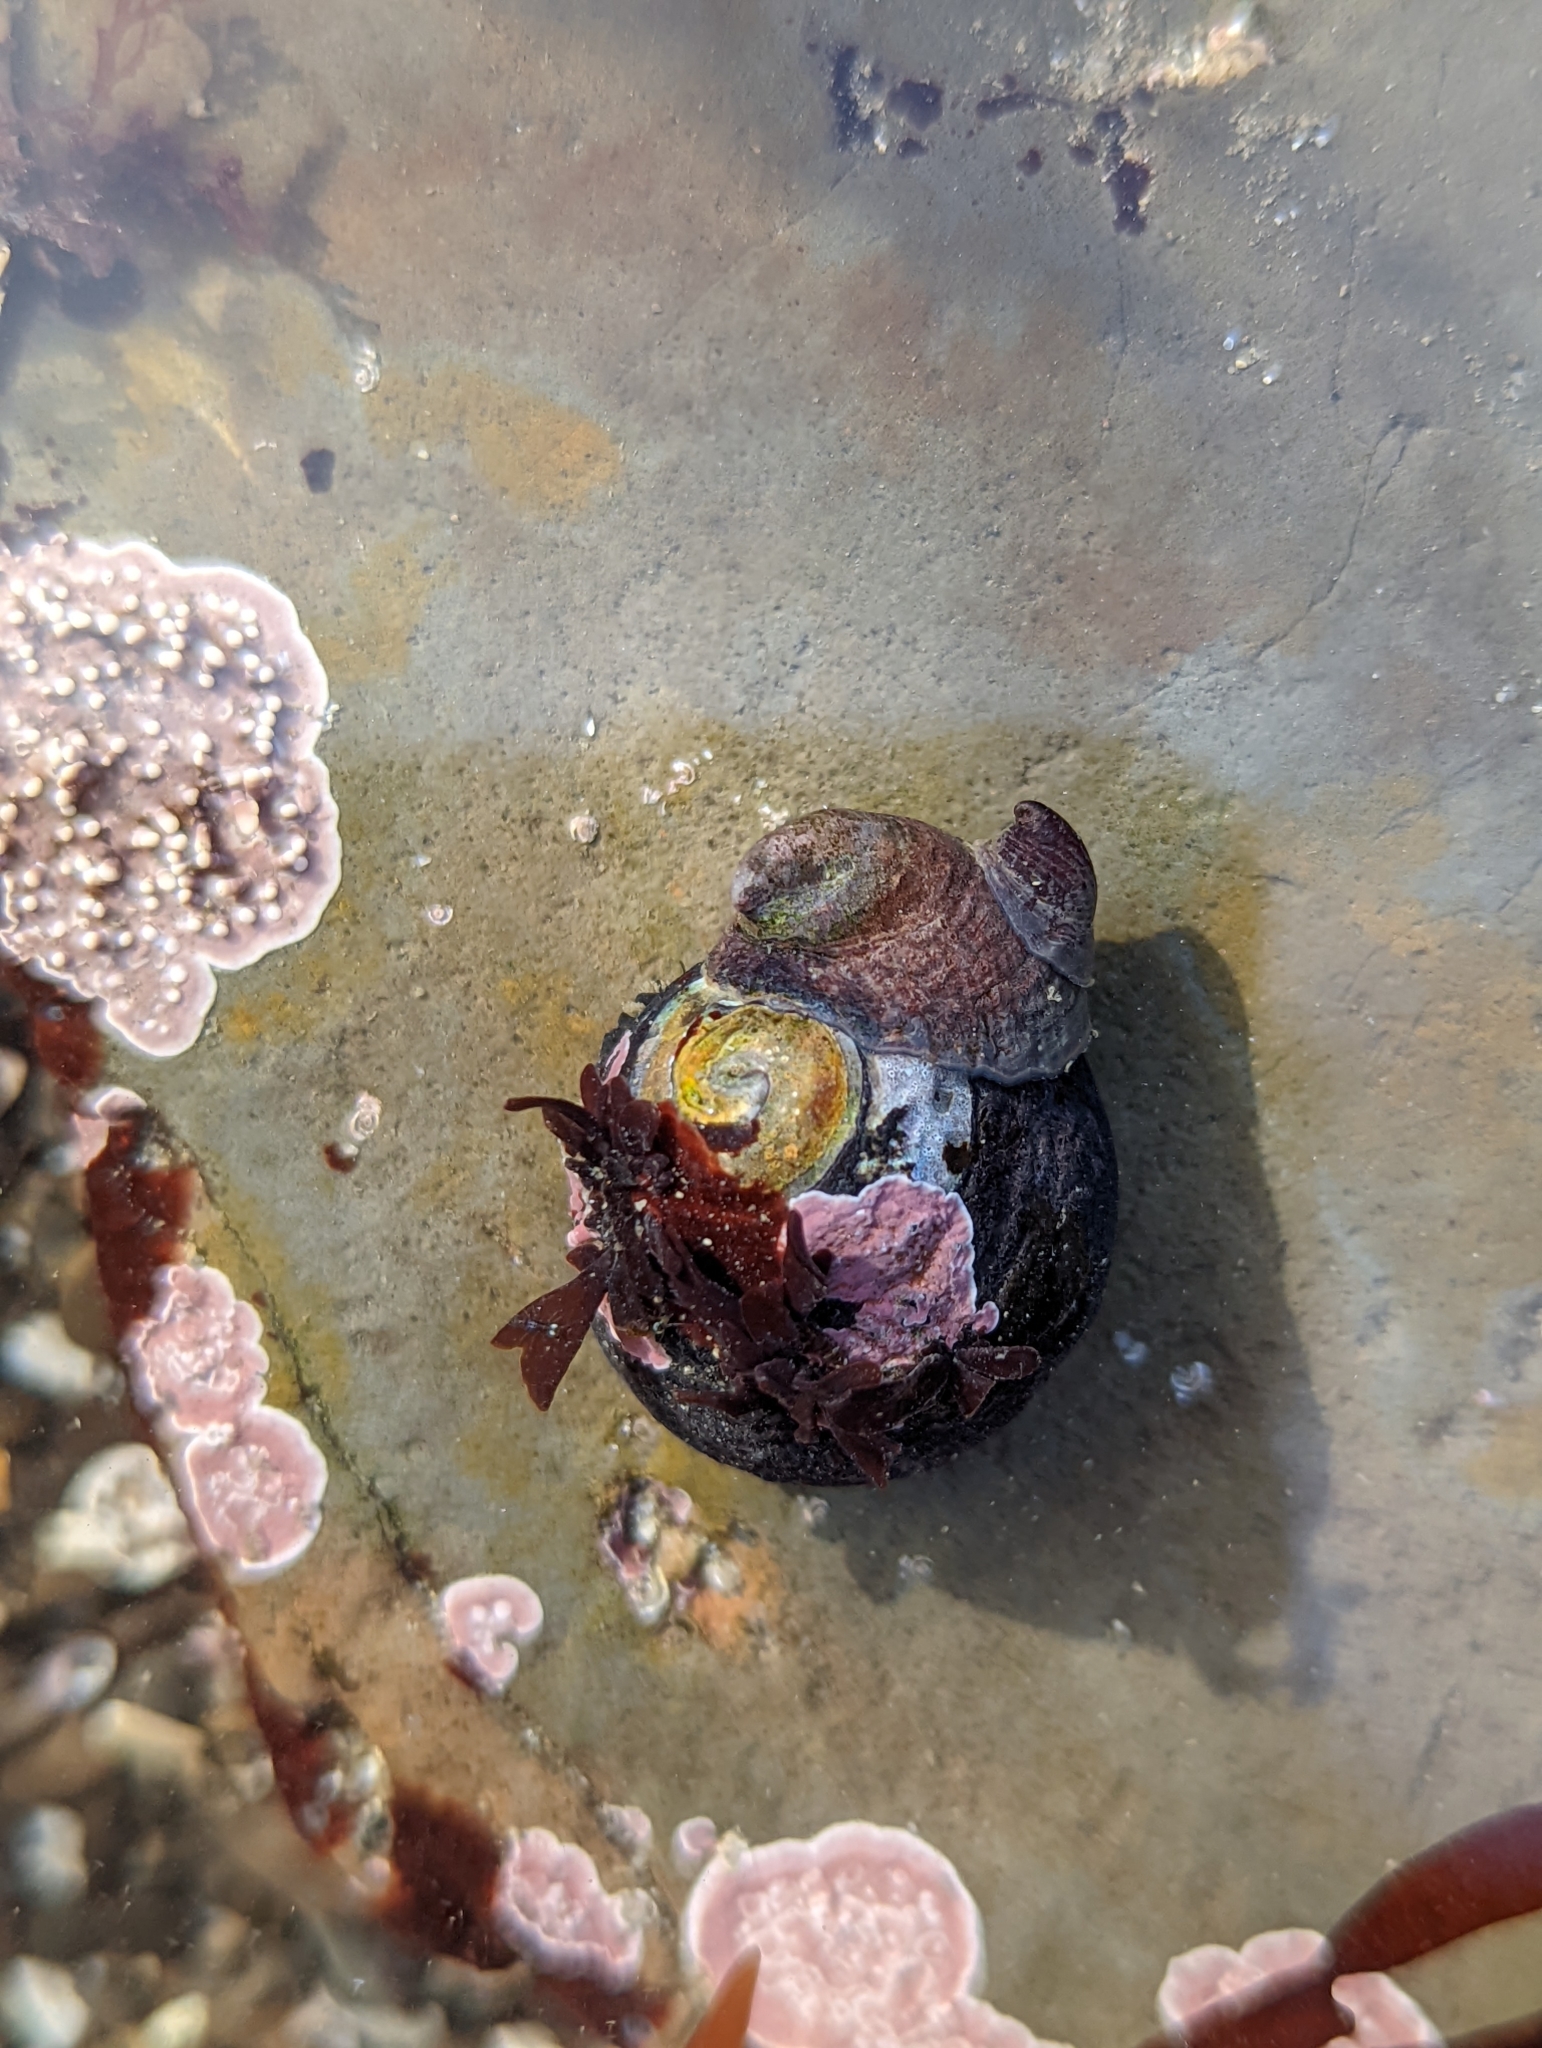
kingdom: Animalia
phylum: Mollusca
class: Gastropoda
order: Littorinimorpha
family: Calyptraeidae
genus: Crepidula
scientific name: Crepidula adunca
